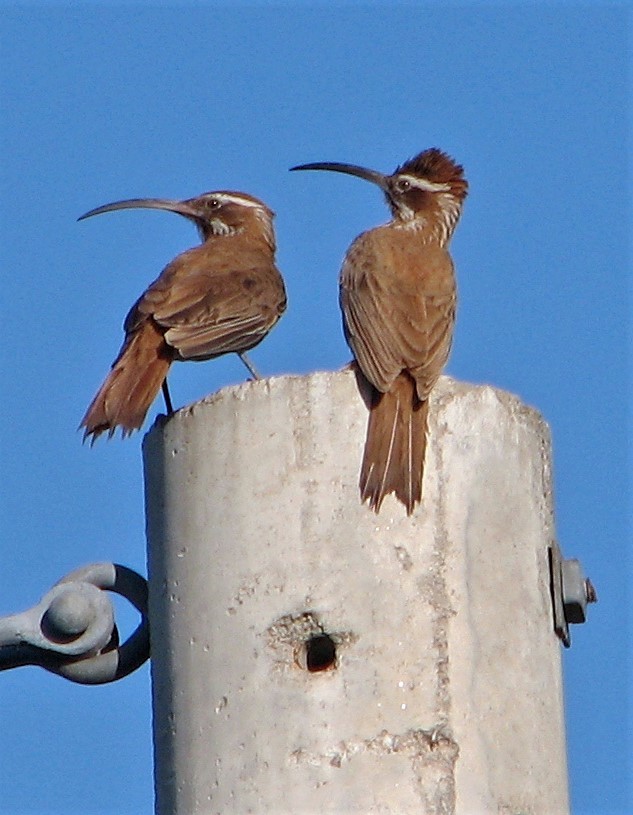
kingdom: Animalia
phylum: Chordata
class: Aves
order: Passeriformes
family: Furnariidae
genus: Drymornis
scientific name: Drymornis bridgesii
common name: Scimitar-billed woodcreeper
